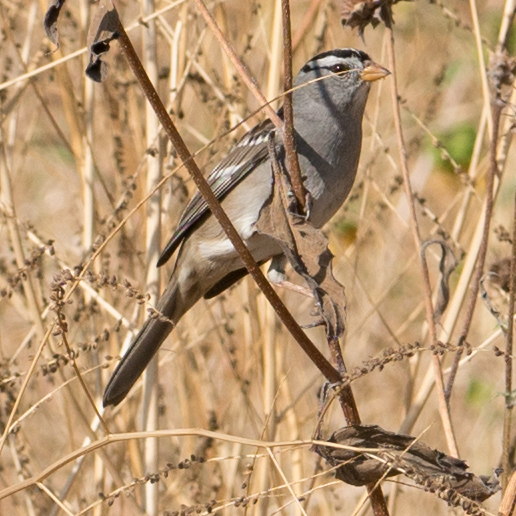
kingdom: Animalia
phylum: Chordata
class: Aves
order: Passeriformes
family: Passerellidae
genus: Zonotrichia
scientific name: Zonotrichia leucophrys
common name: White-crowned sparrow
